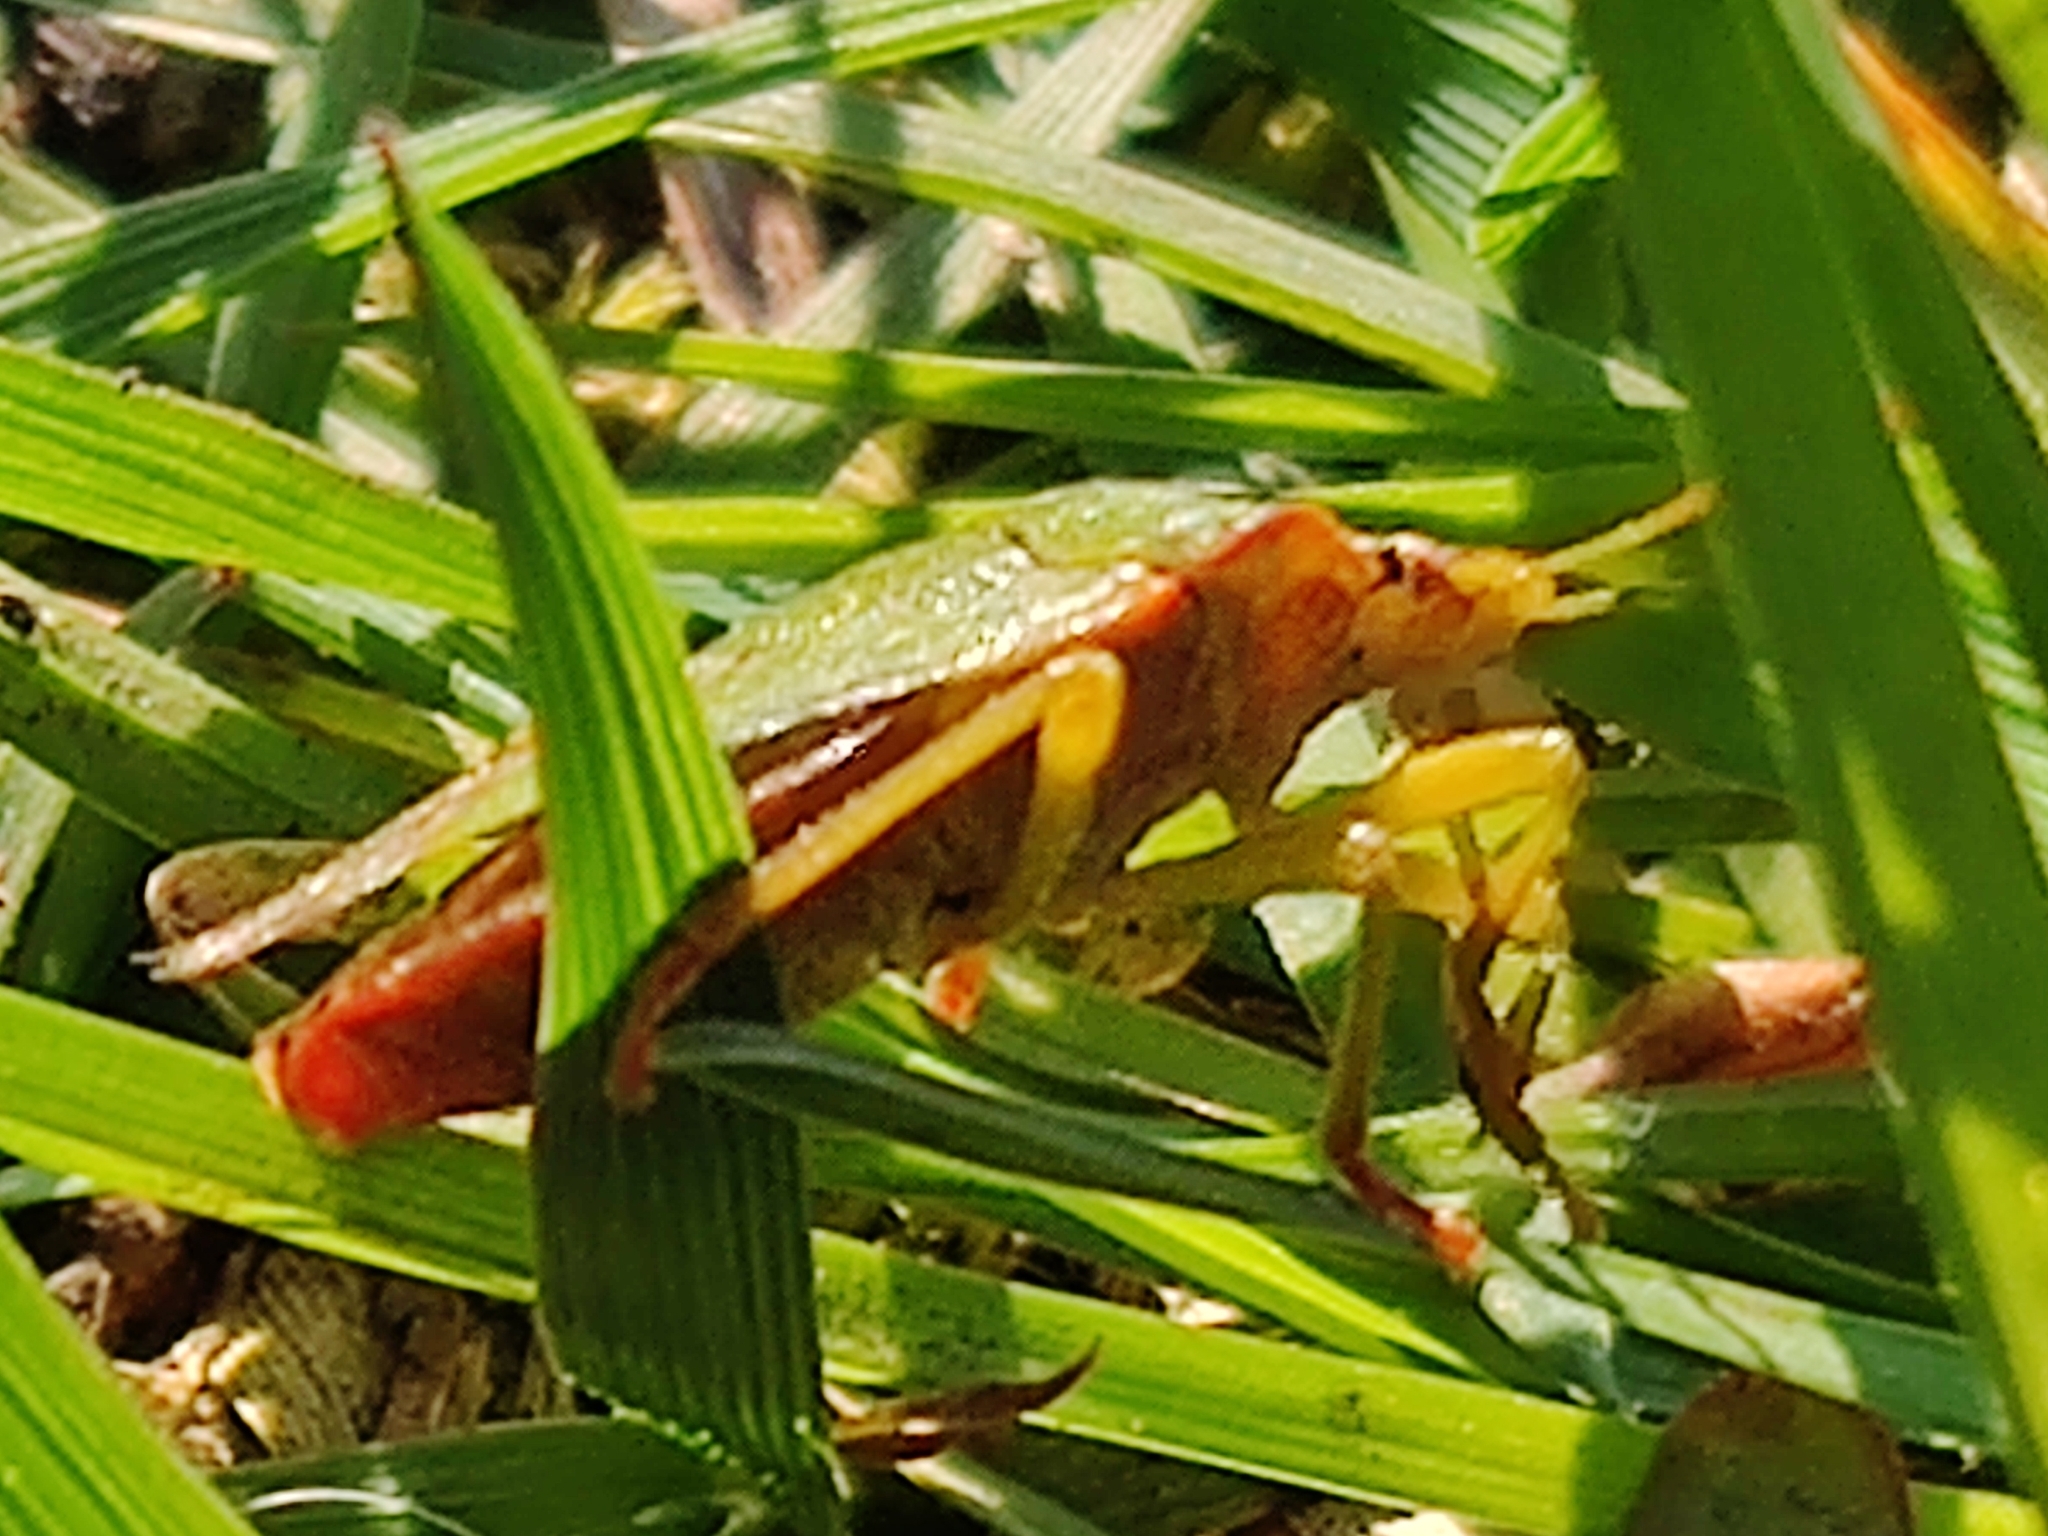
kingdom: Animalia
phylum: Arthropoda
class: Insecta
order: Hemiptera
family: Pentatomidae
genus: Palomena
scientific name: Palomena prasina
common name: Green shieldbug
